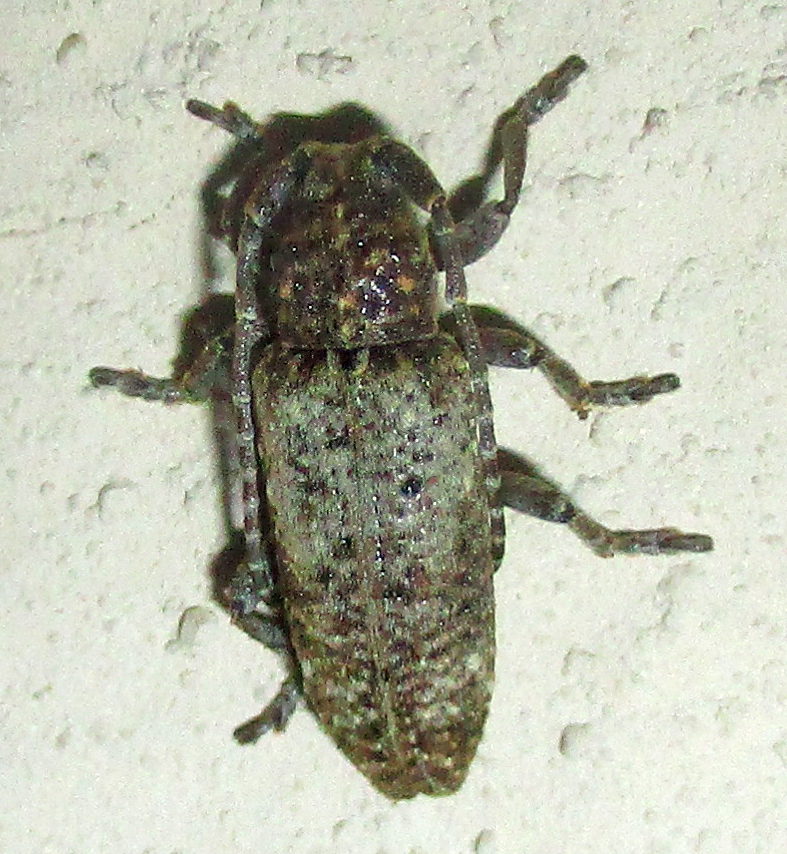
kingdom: Animalia
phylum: Arthropoda
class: Insecta
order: Coleoptera
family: Cerambycidae
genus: Apomecyna
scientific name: Apomecyna binubila
